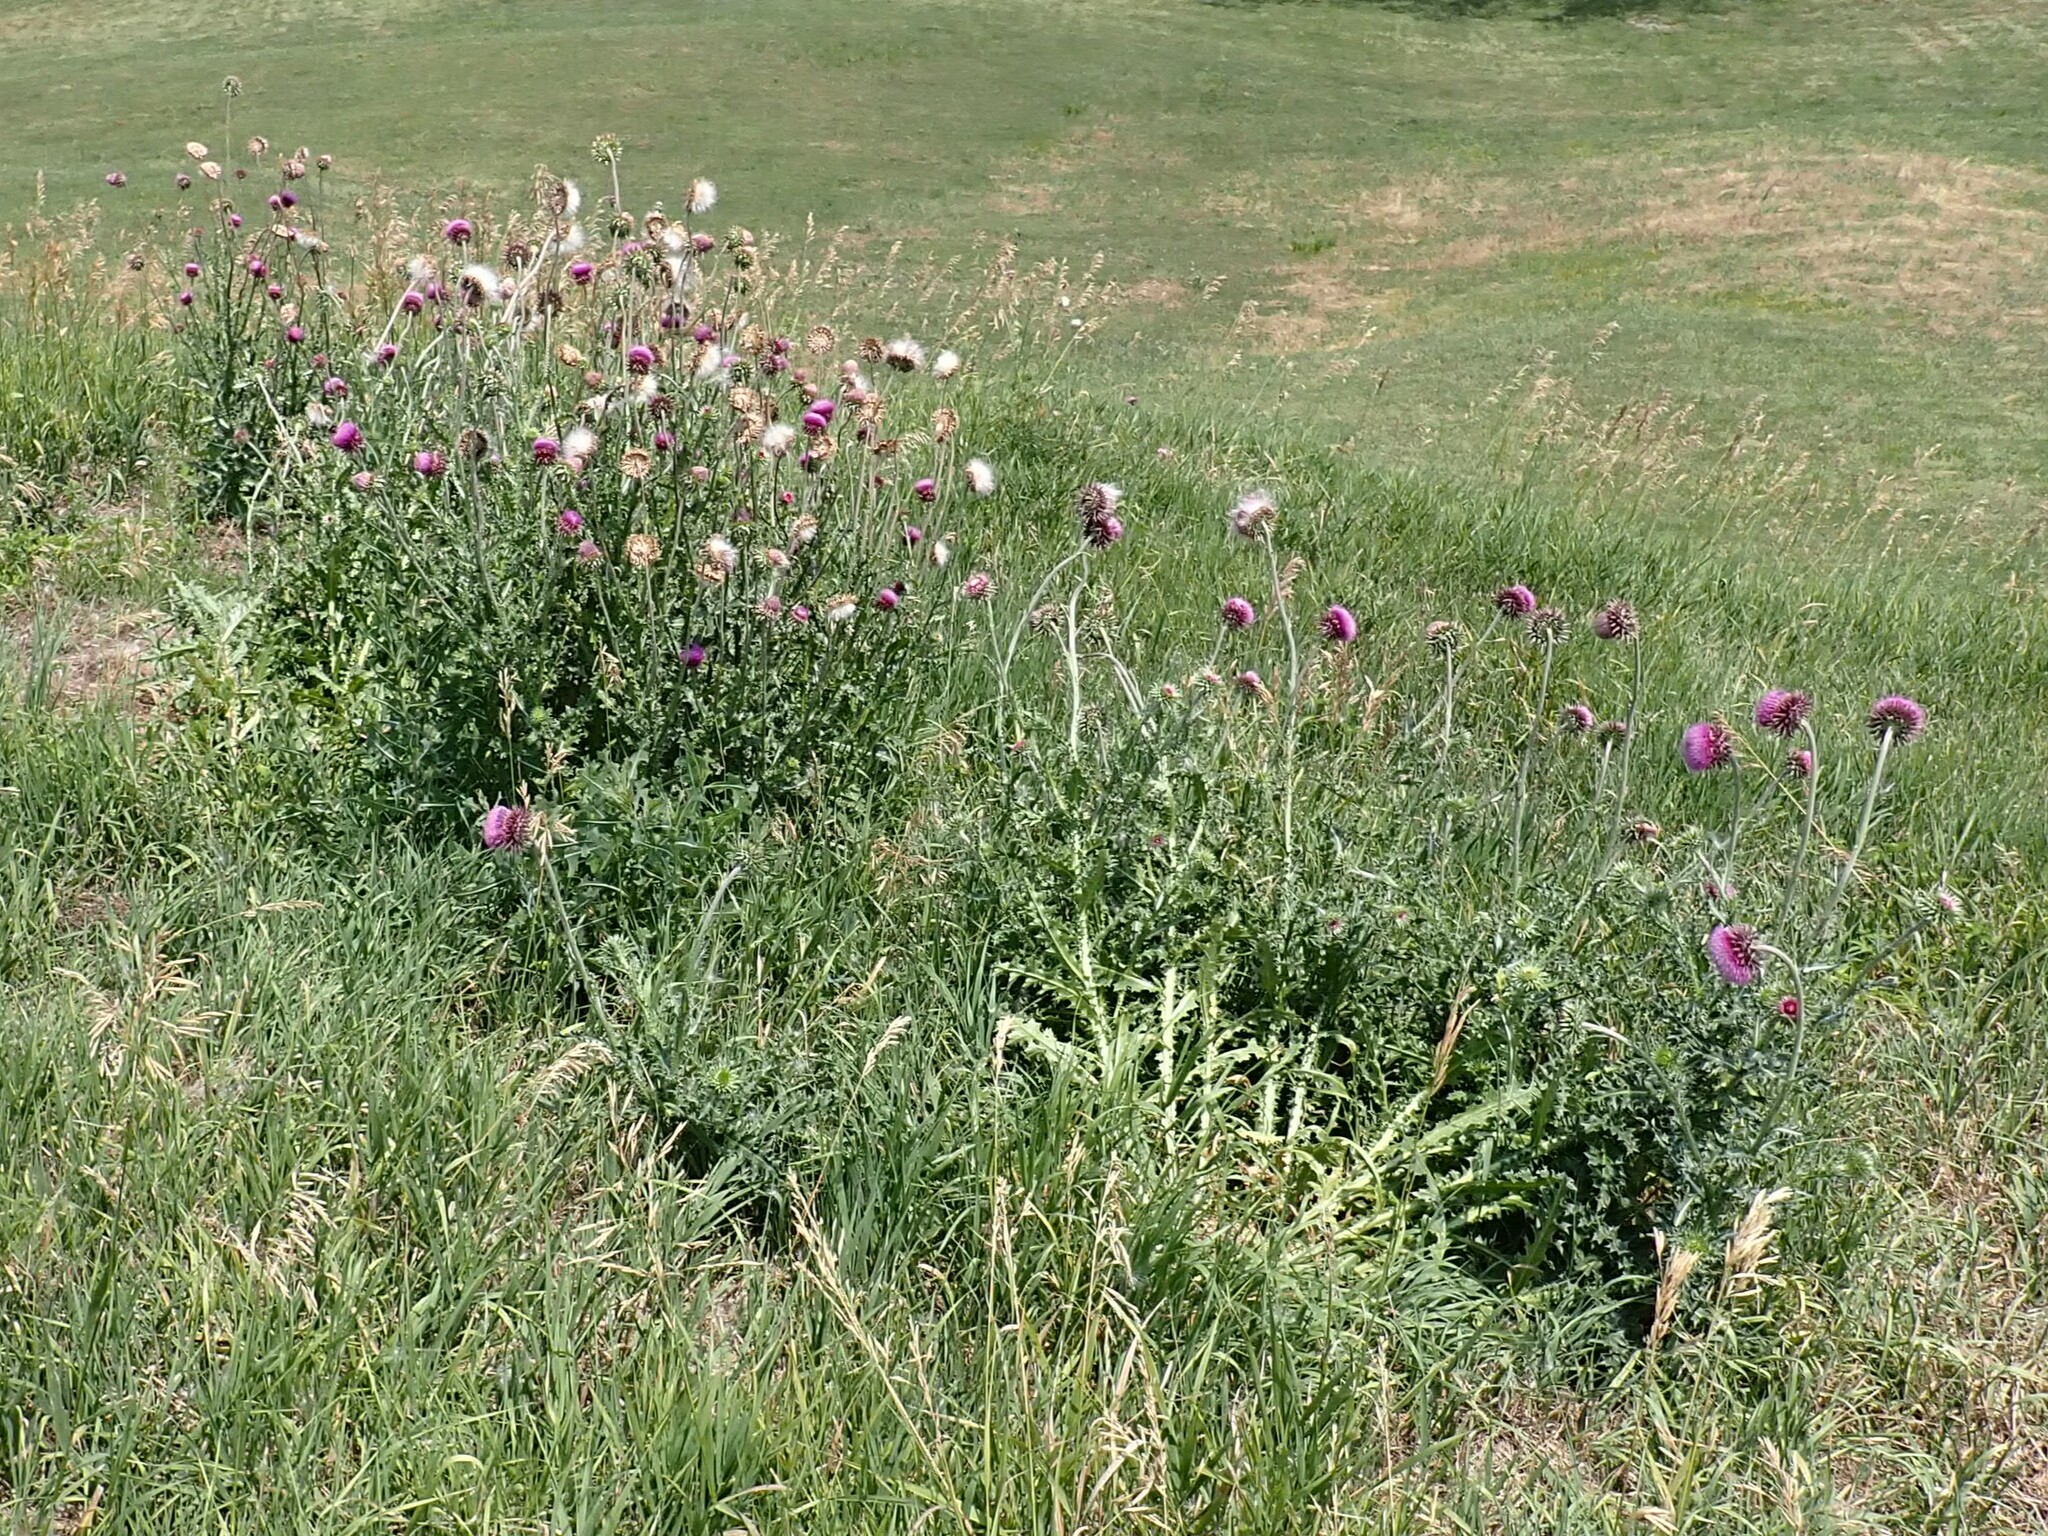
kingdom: Plantae
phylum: Tracheophyta
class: Magnoliopsida
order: Asterales
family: Asteraceae
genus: Carduus
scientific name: Carduus nutans
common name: Musk thistle
